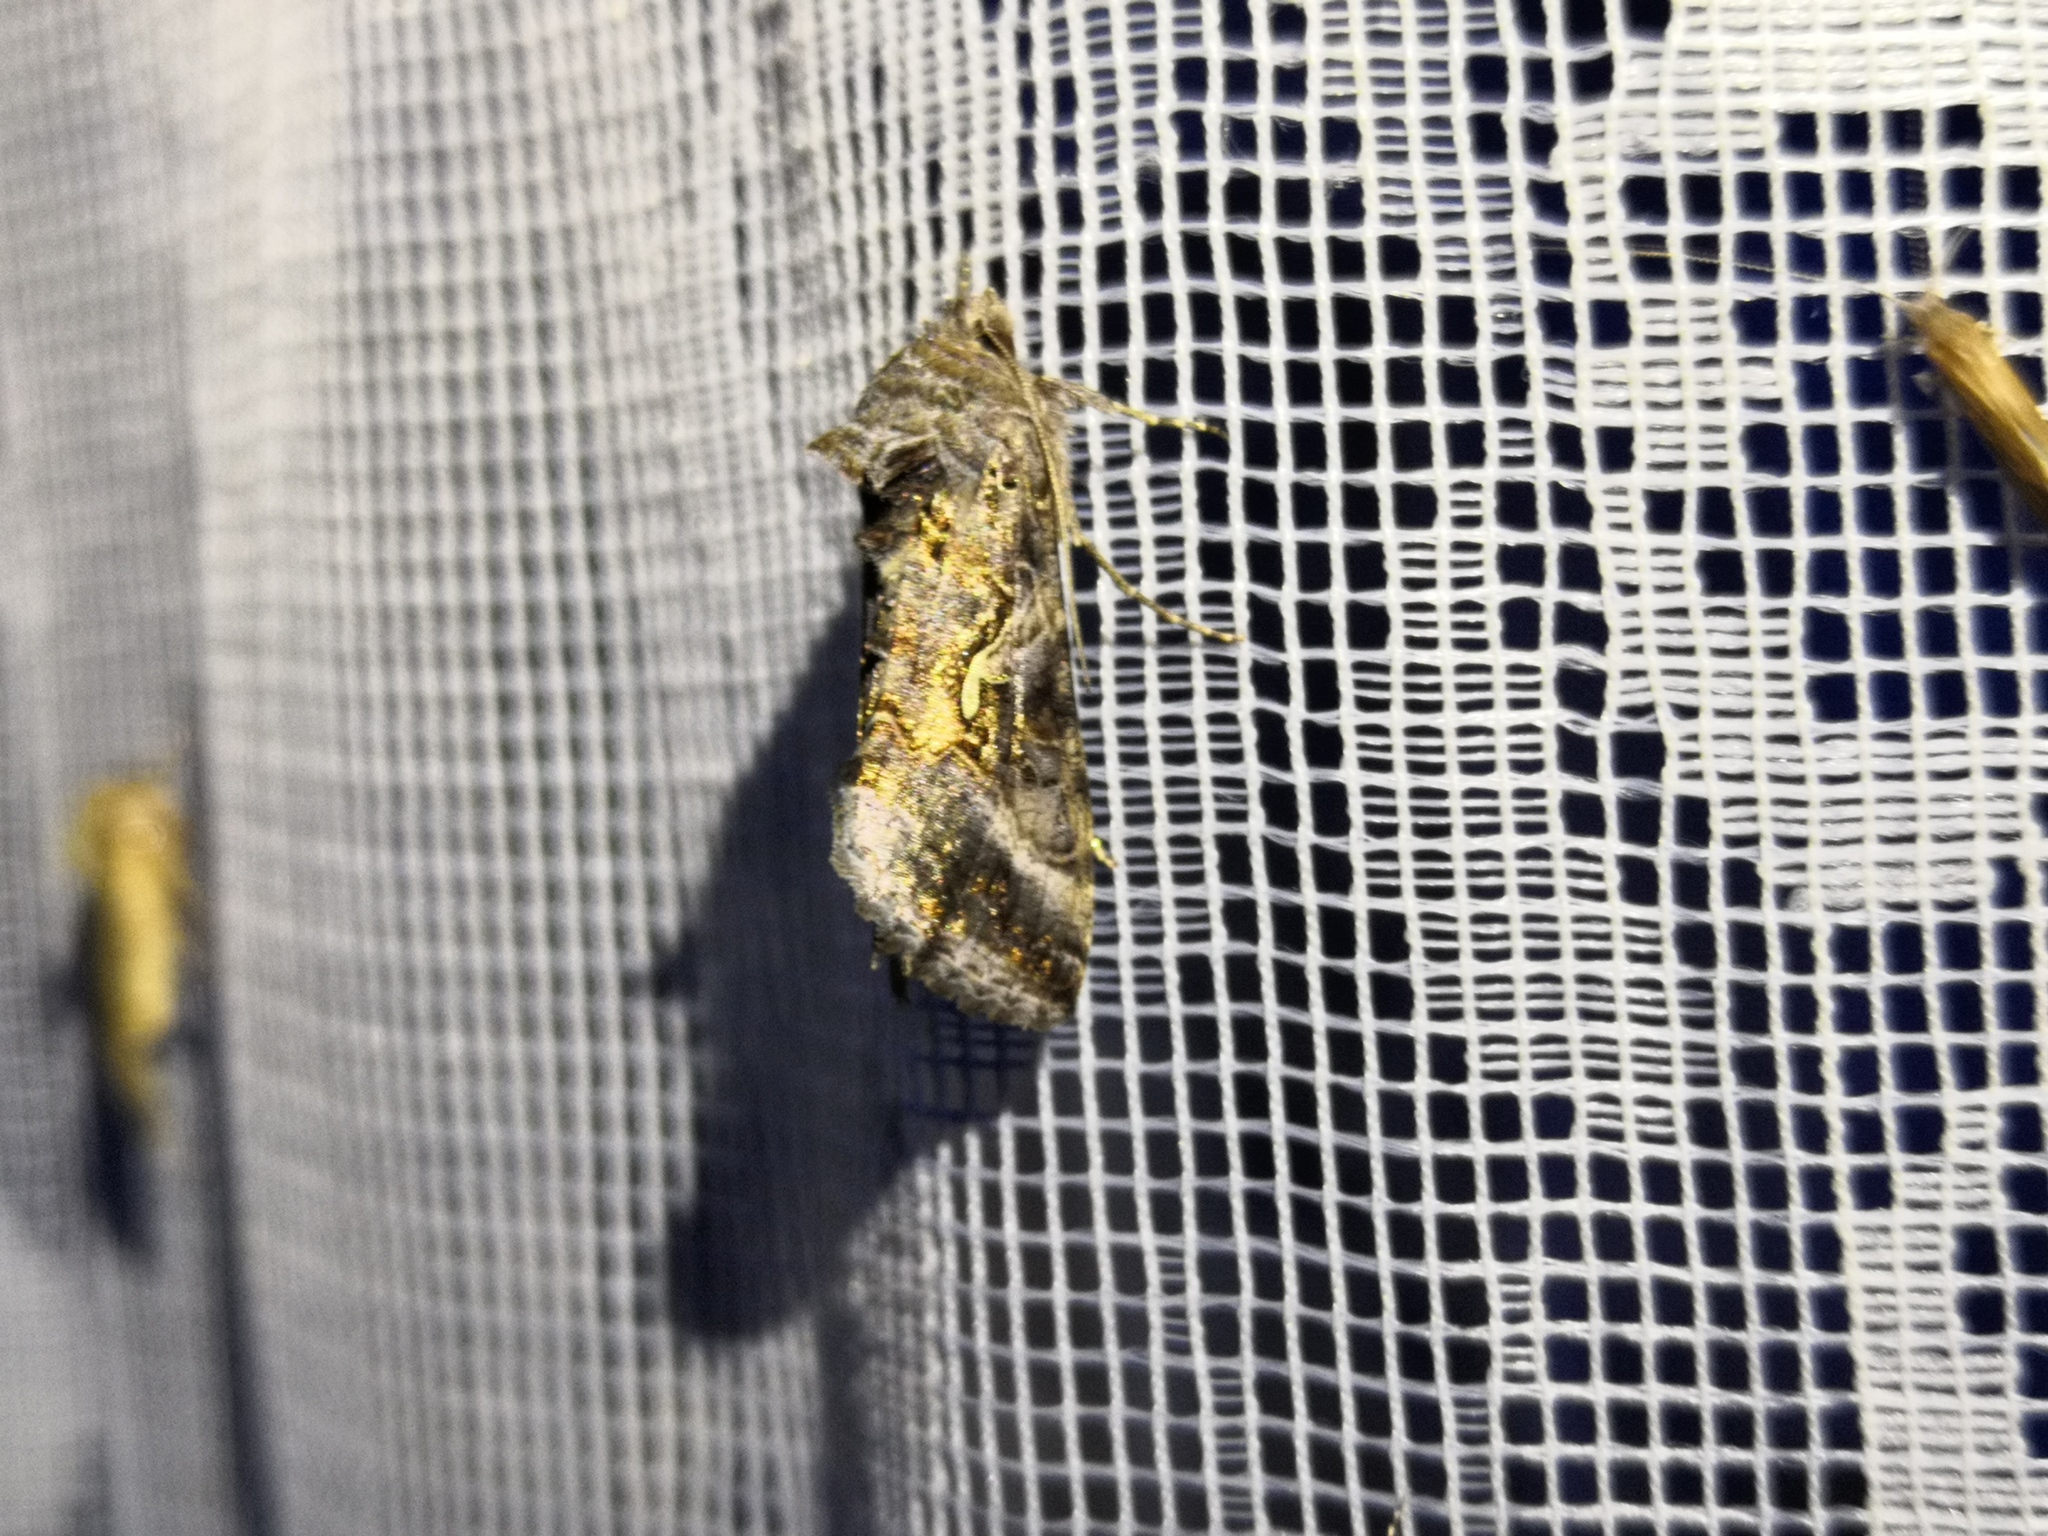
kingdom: Animalia
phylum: Arthropoda
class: Insecta
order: Lepidoptera
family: Noctuidae
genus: Autographa
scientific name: Autographa gamma
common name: Silver y
